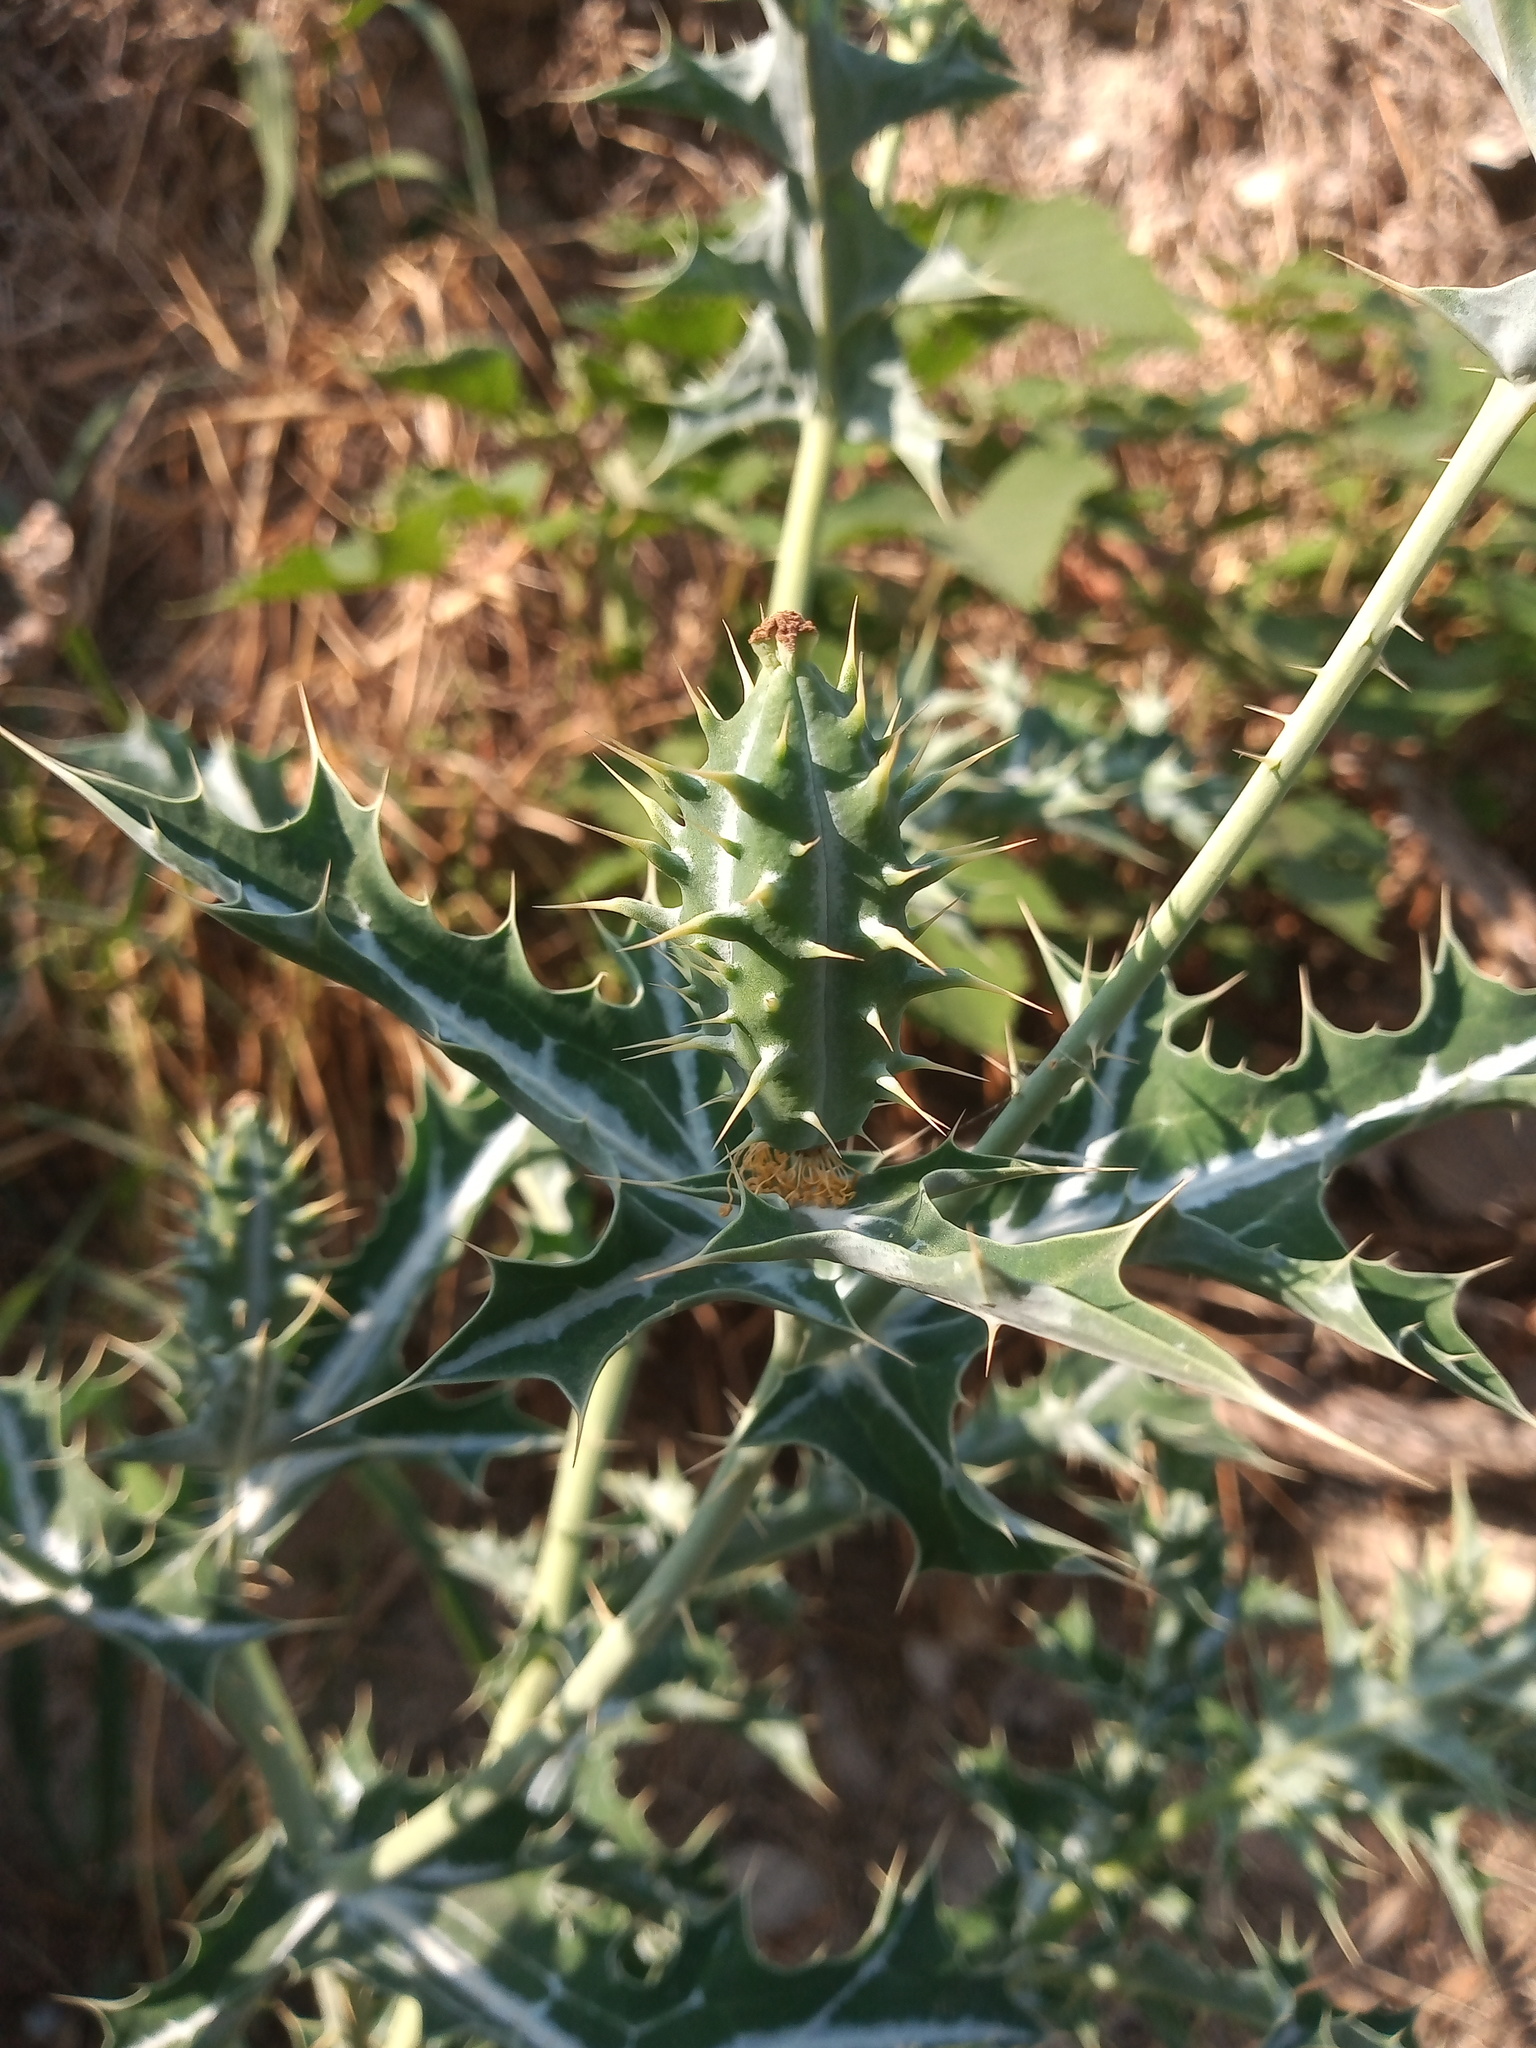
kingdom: Plantae
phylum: Tracheophyta
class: Magnoliopsida
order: Ranunculales
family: Papaveraceae
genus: Argemone
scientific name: Argemone mexicana
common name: Mexican poppy
